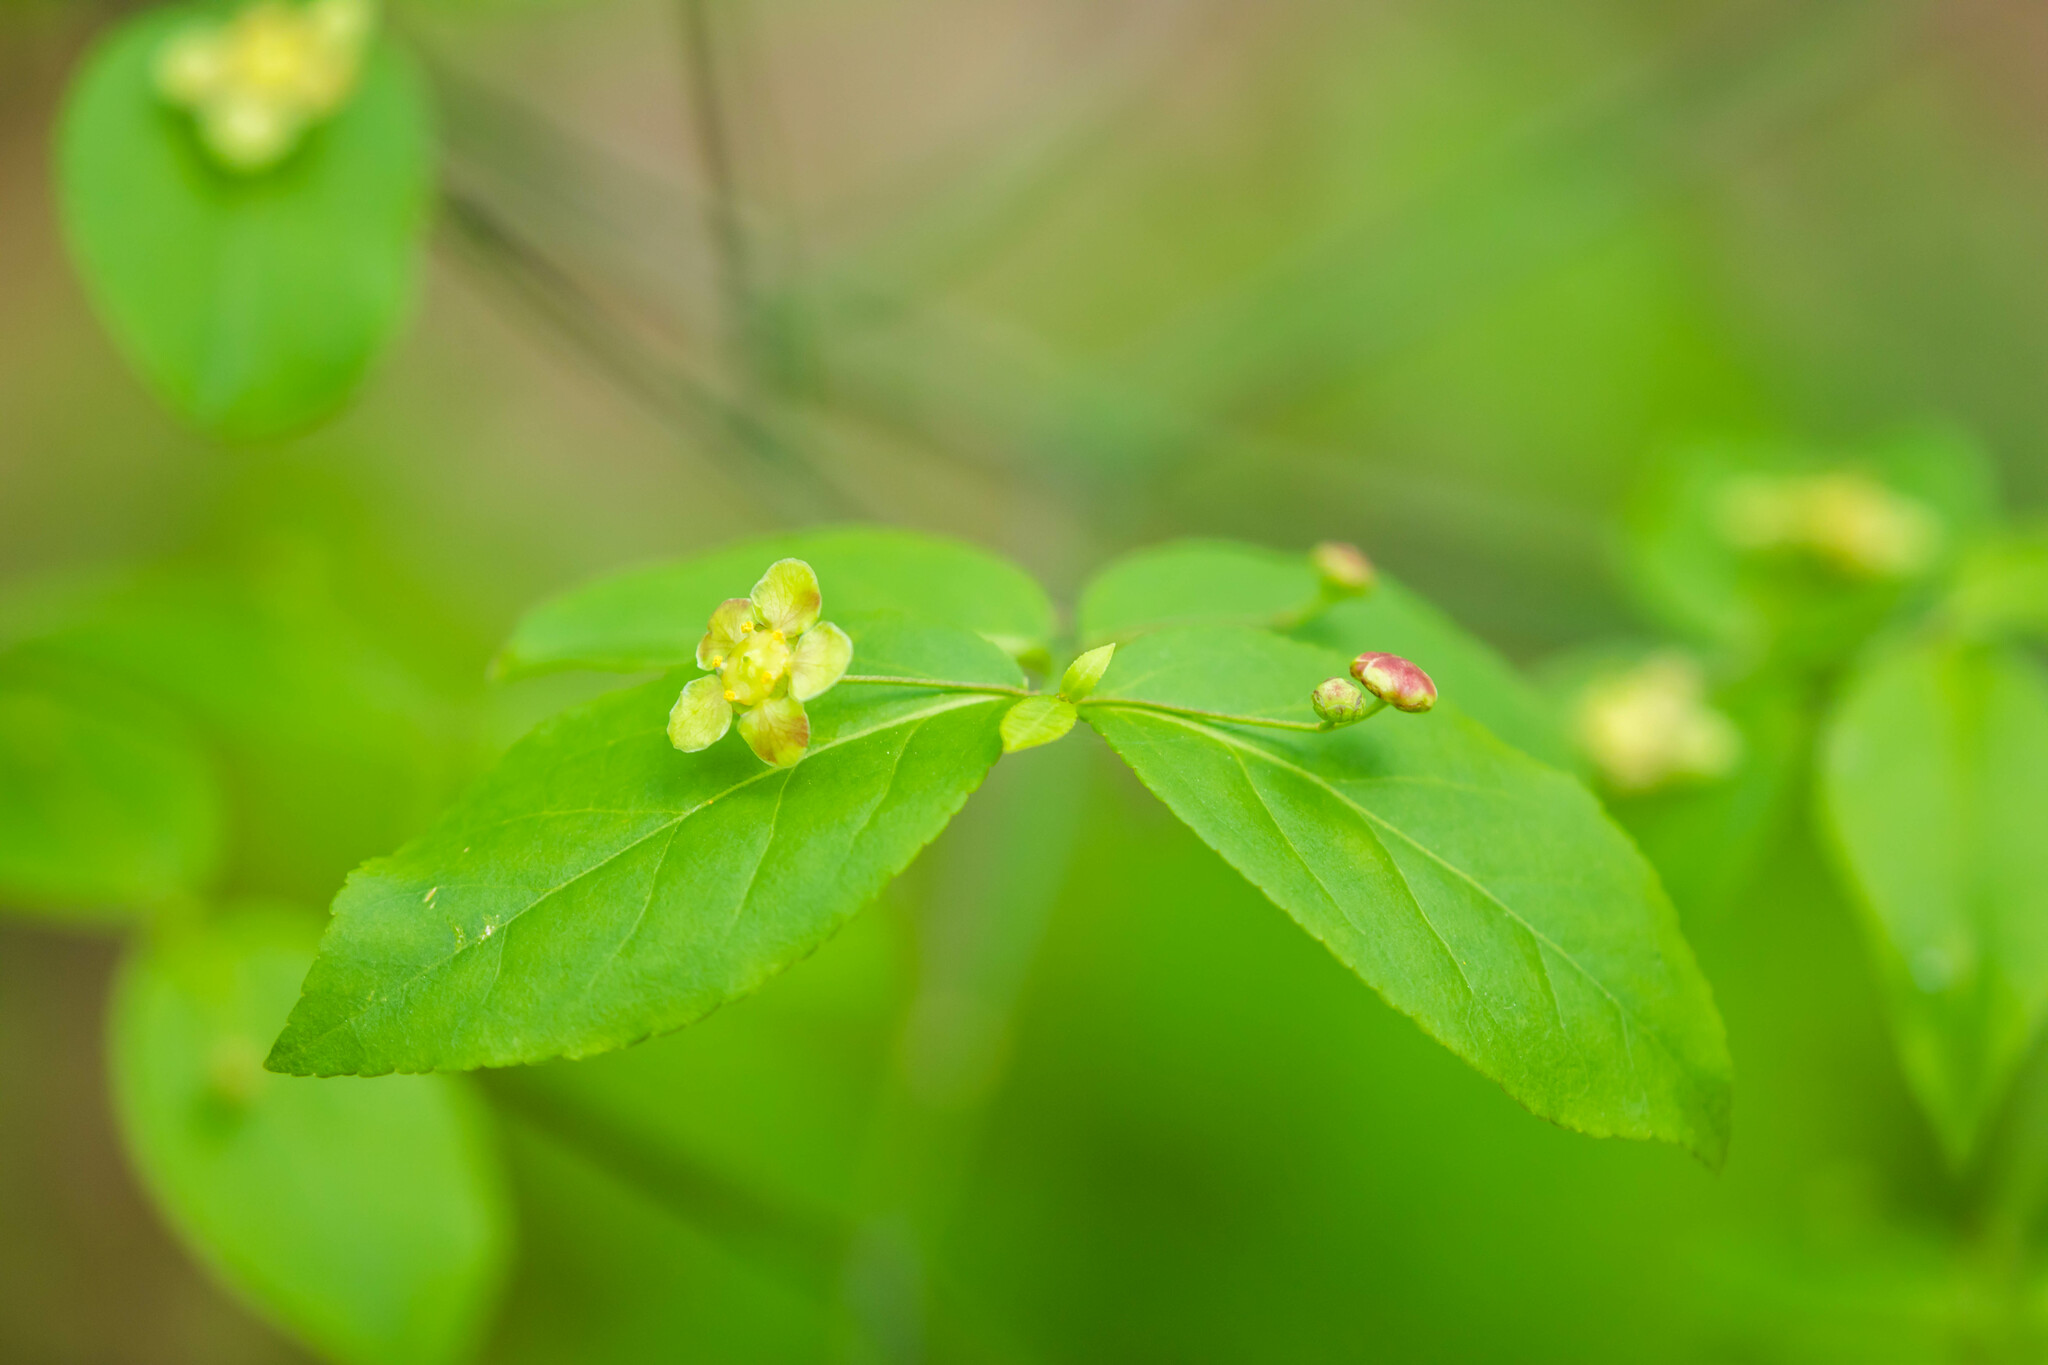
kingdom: Plantae
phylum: Tracheophyta
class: Magnoliopsida
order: Celastrales
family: Celastraceae
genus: Euonymus
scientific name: Euonymus americanus
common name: Bursting-heart
